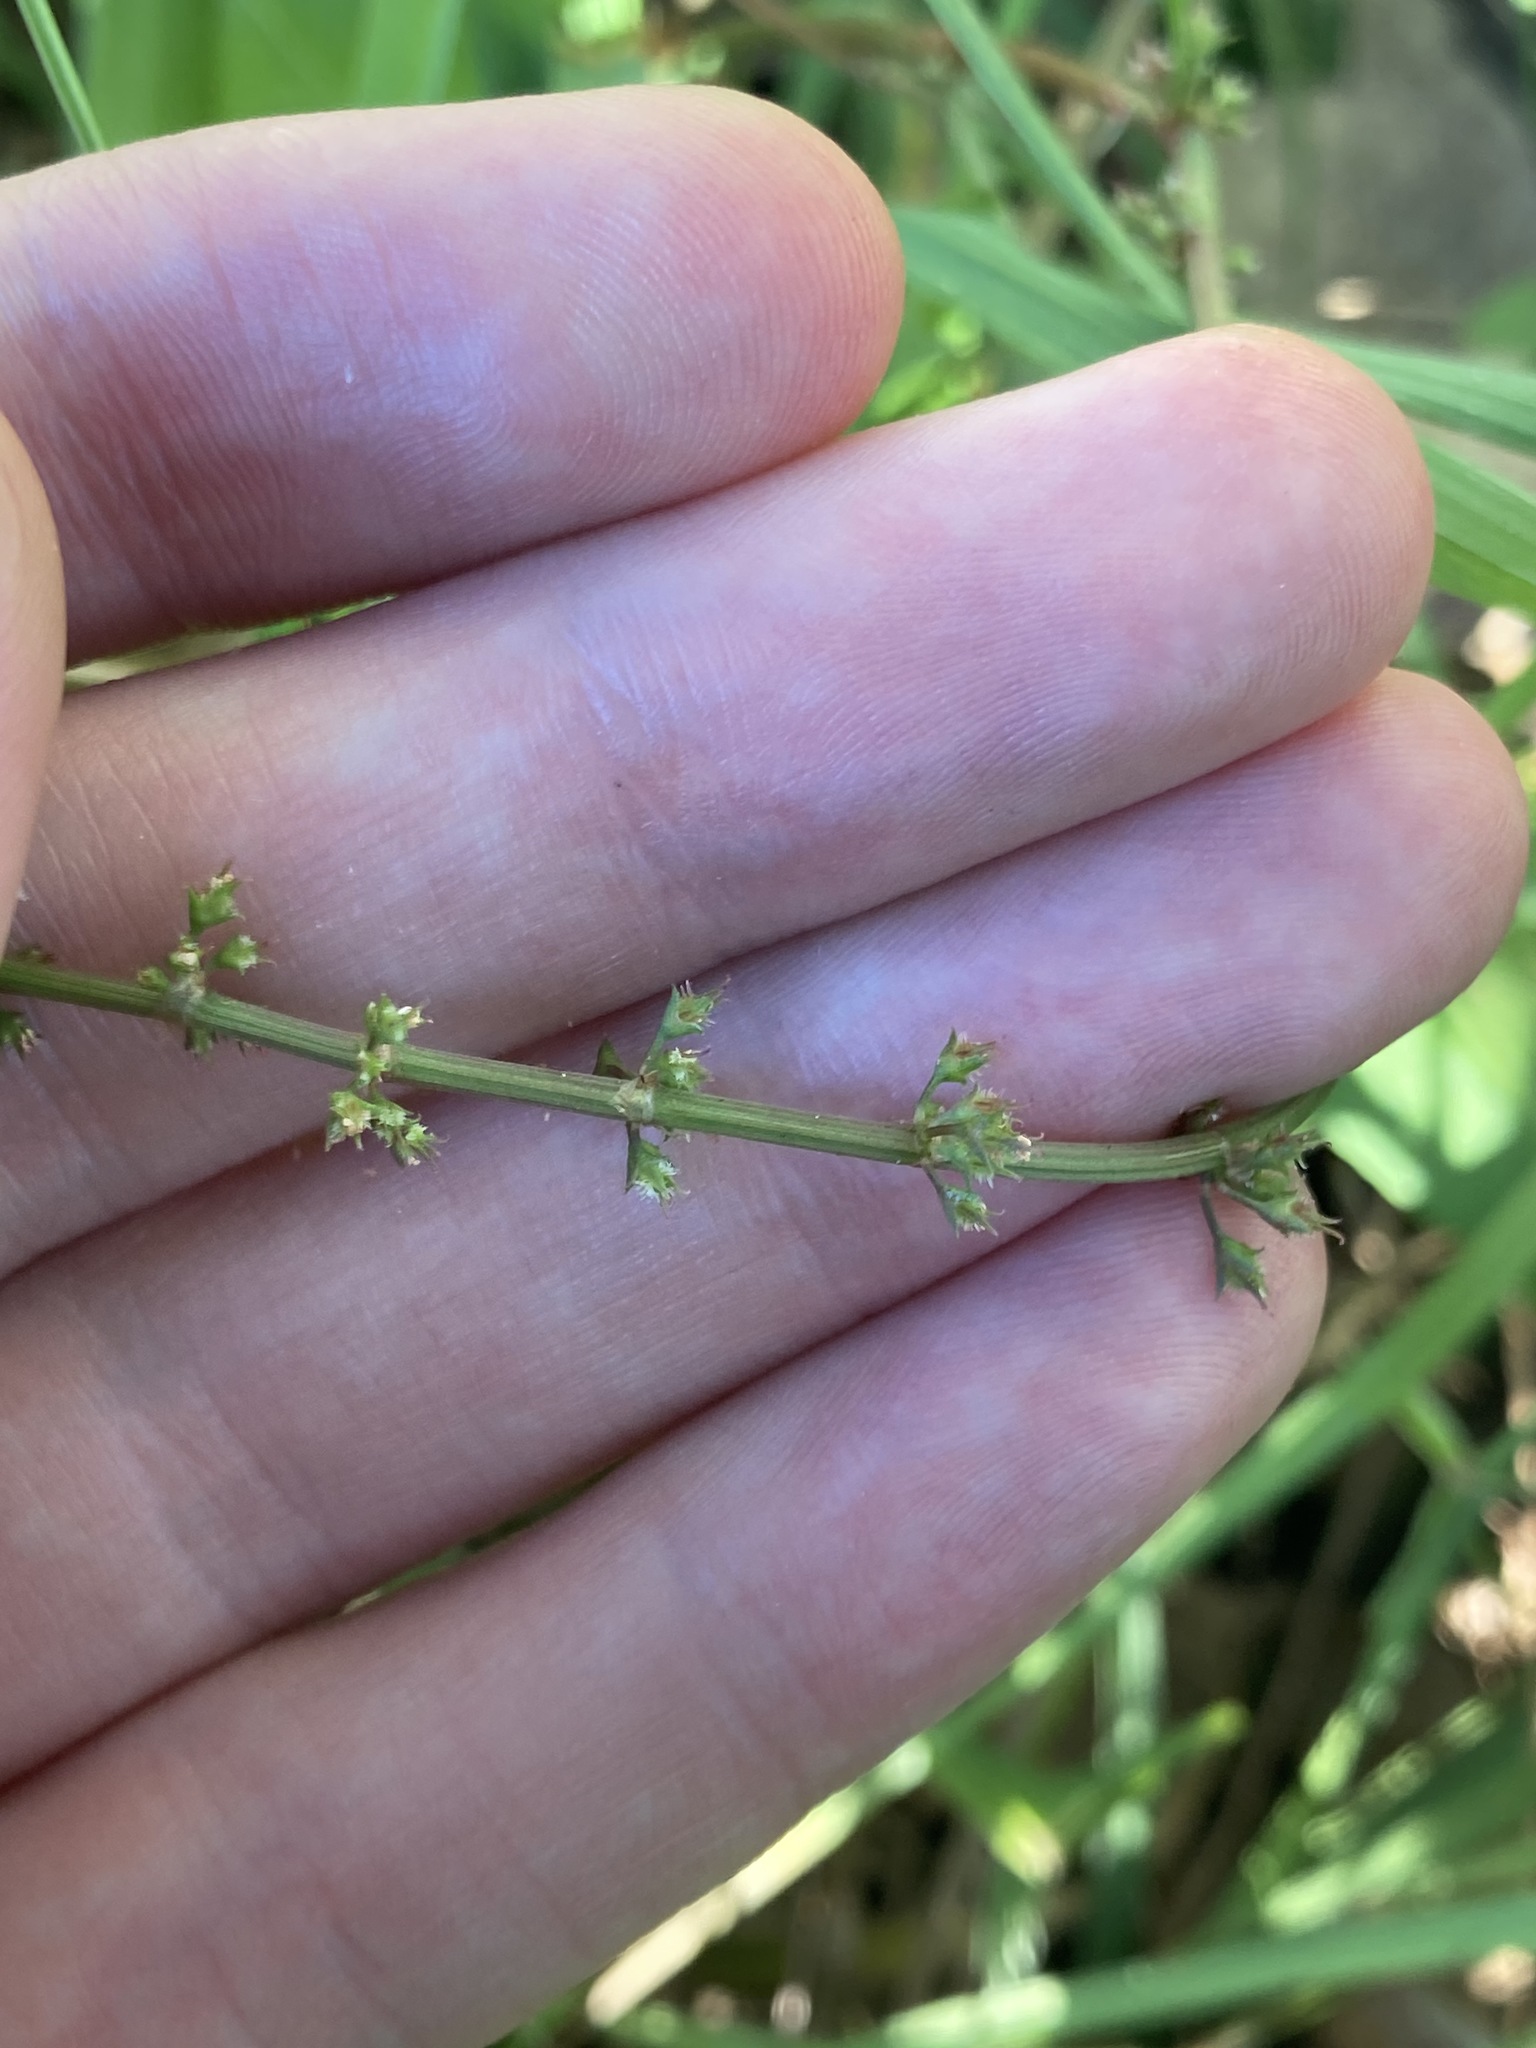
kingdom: Plantae
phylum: Tracheophyta
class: Magnoliopsida
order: Caryophyllales
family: Polygonaceae
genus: Rumex
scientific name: Rumex brownii
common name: Hooked dock
